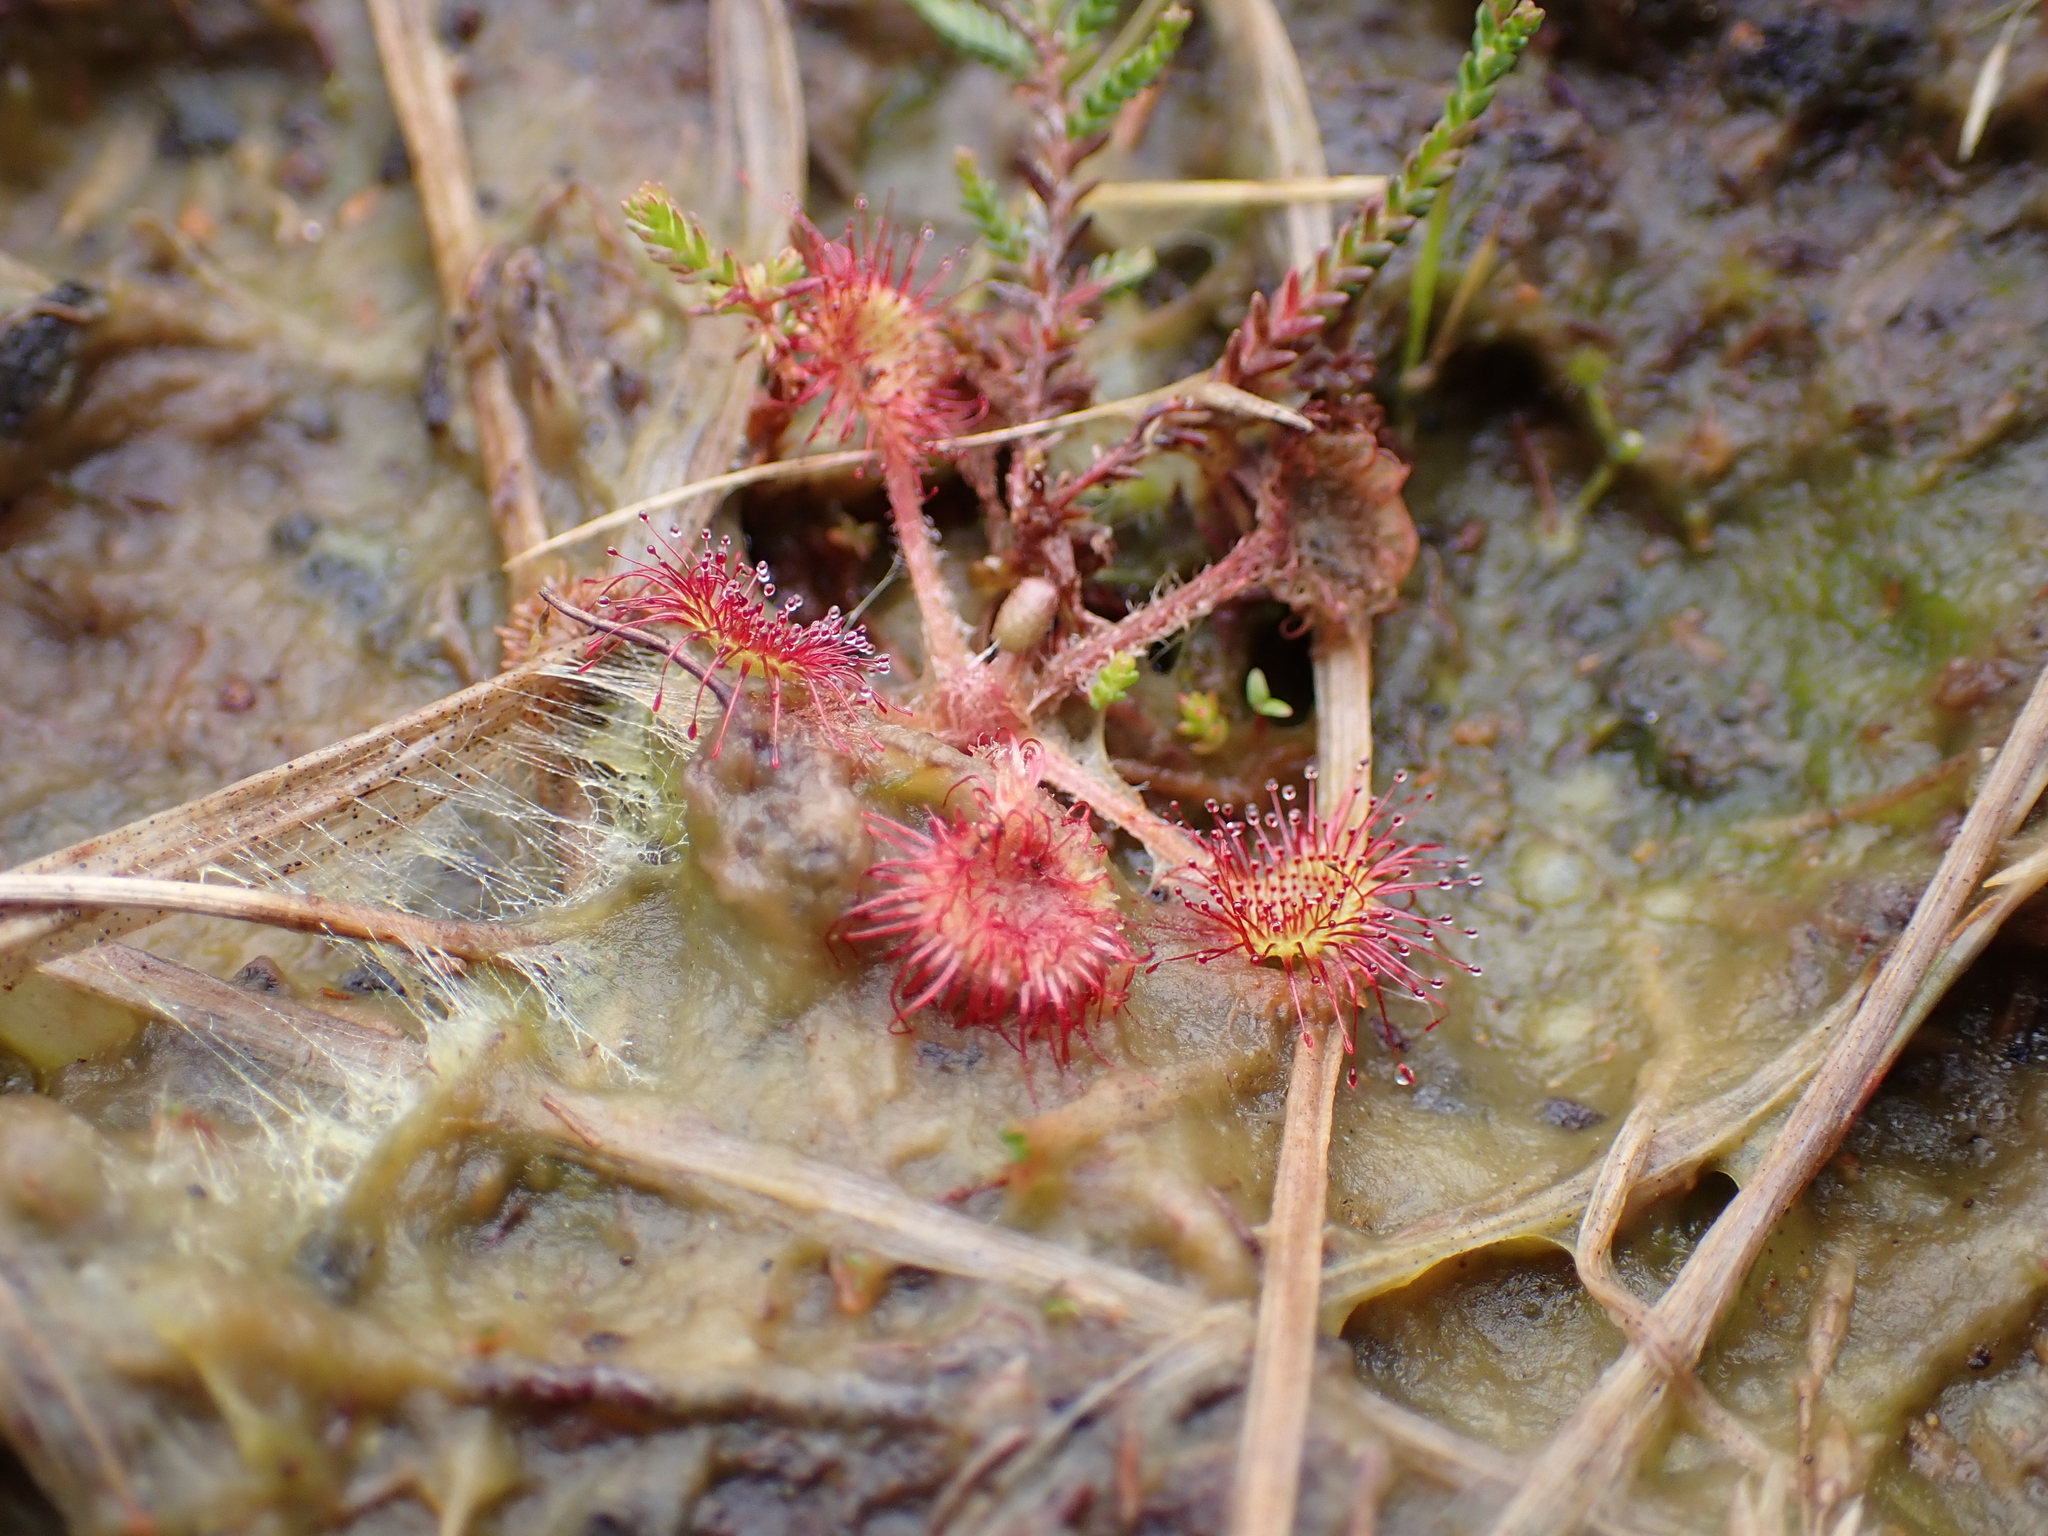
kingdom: Plantae
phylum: Tracheophyta
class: Magnoliopsida
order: Caryophyllales
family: Droseraceae
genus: Drosera
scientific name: Drosera rotundifolia
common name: Round-leaved sundew
